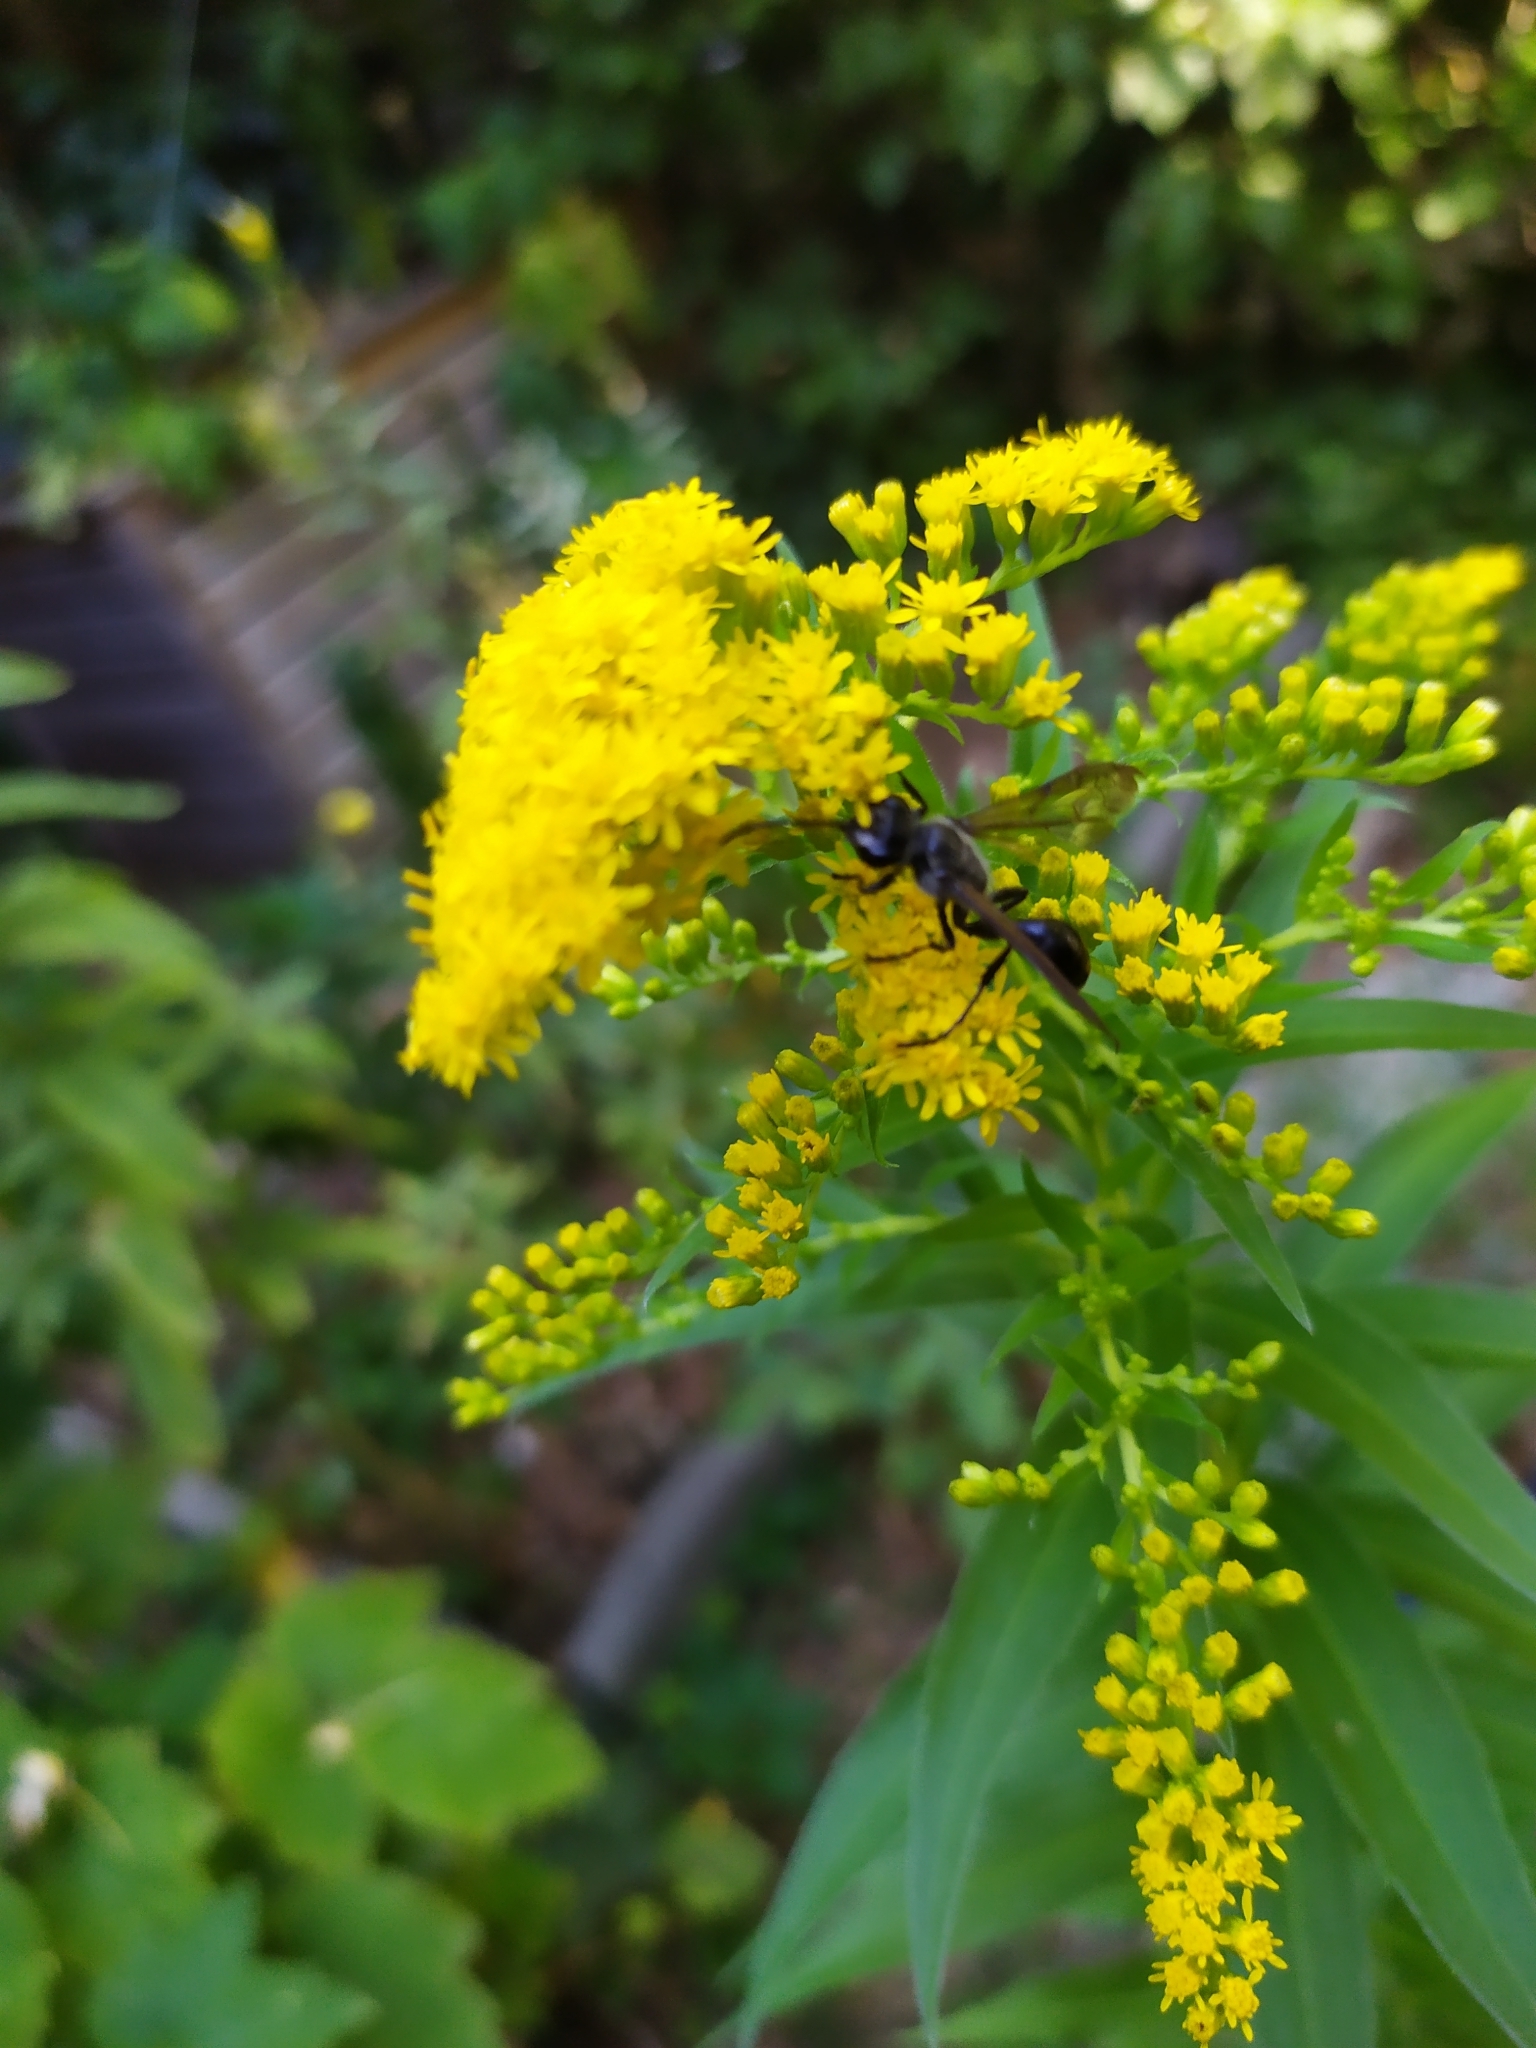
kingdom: Animalia
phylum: Arthropoda
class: Insecta
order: Hymenoptera
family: Sphecidae
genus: Isodontia
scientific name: Isodontia mexicana
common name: Mud dauber
